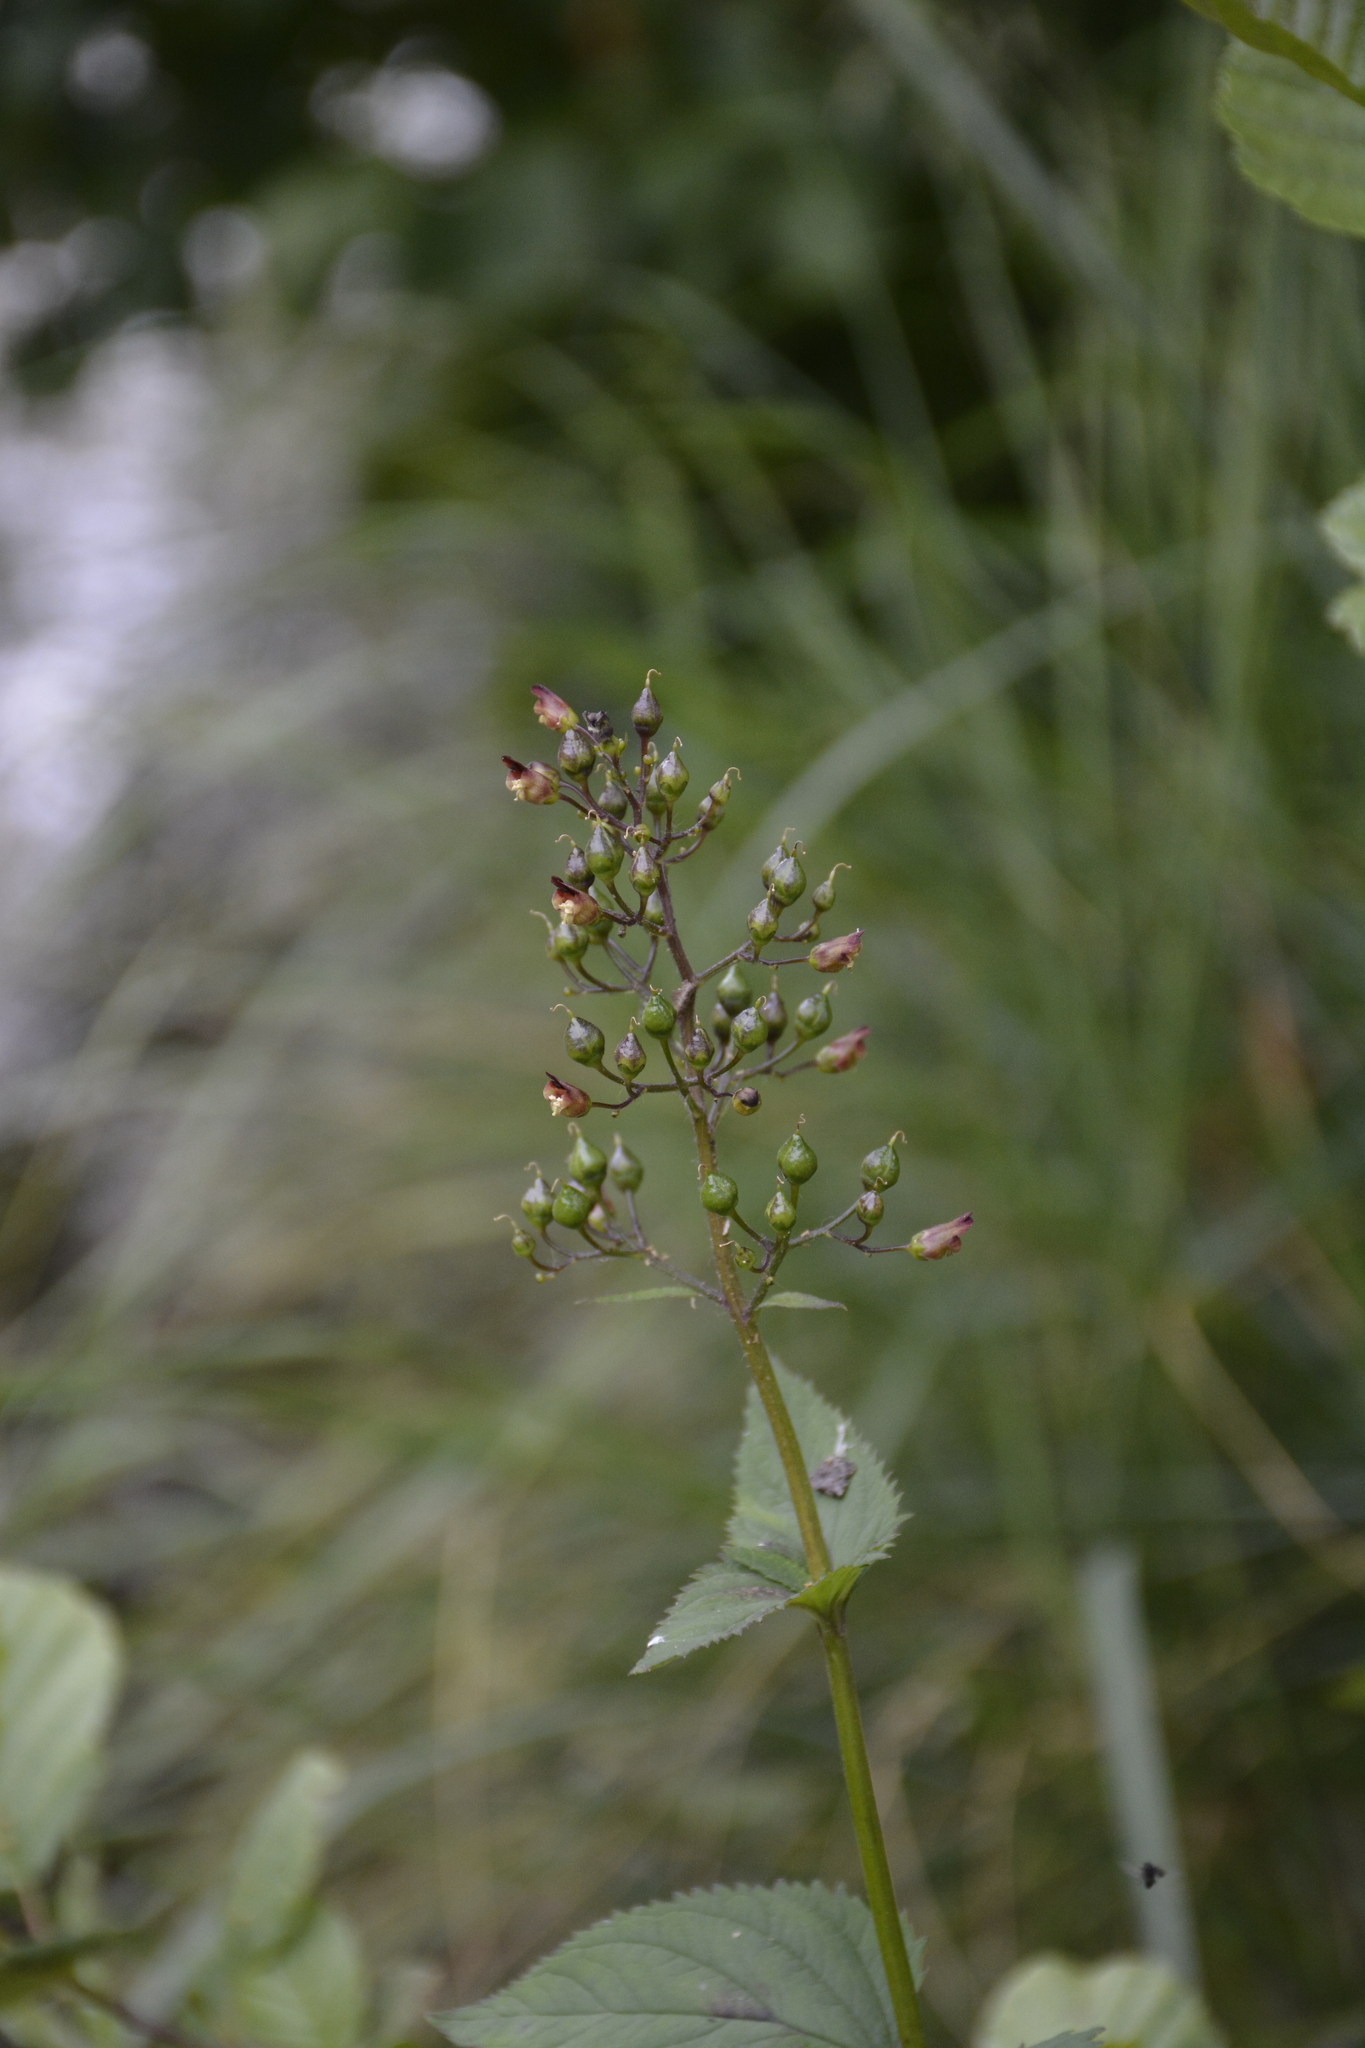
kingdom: Plantae
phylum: Tracheophyta
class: Magnoliopsida
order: Lamiales
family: Scrophulariaceae
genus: Scrophularia
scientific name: Scrophularia nodosa
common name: Common figwort
